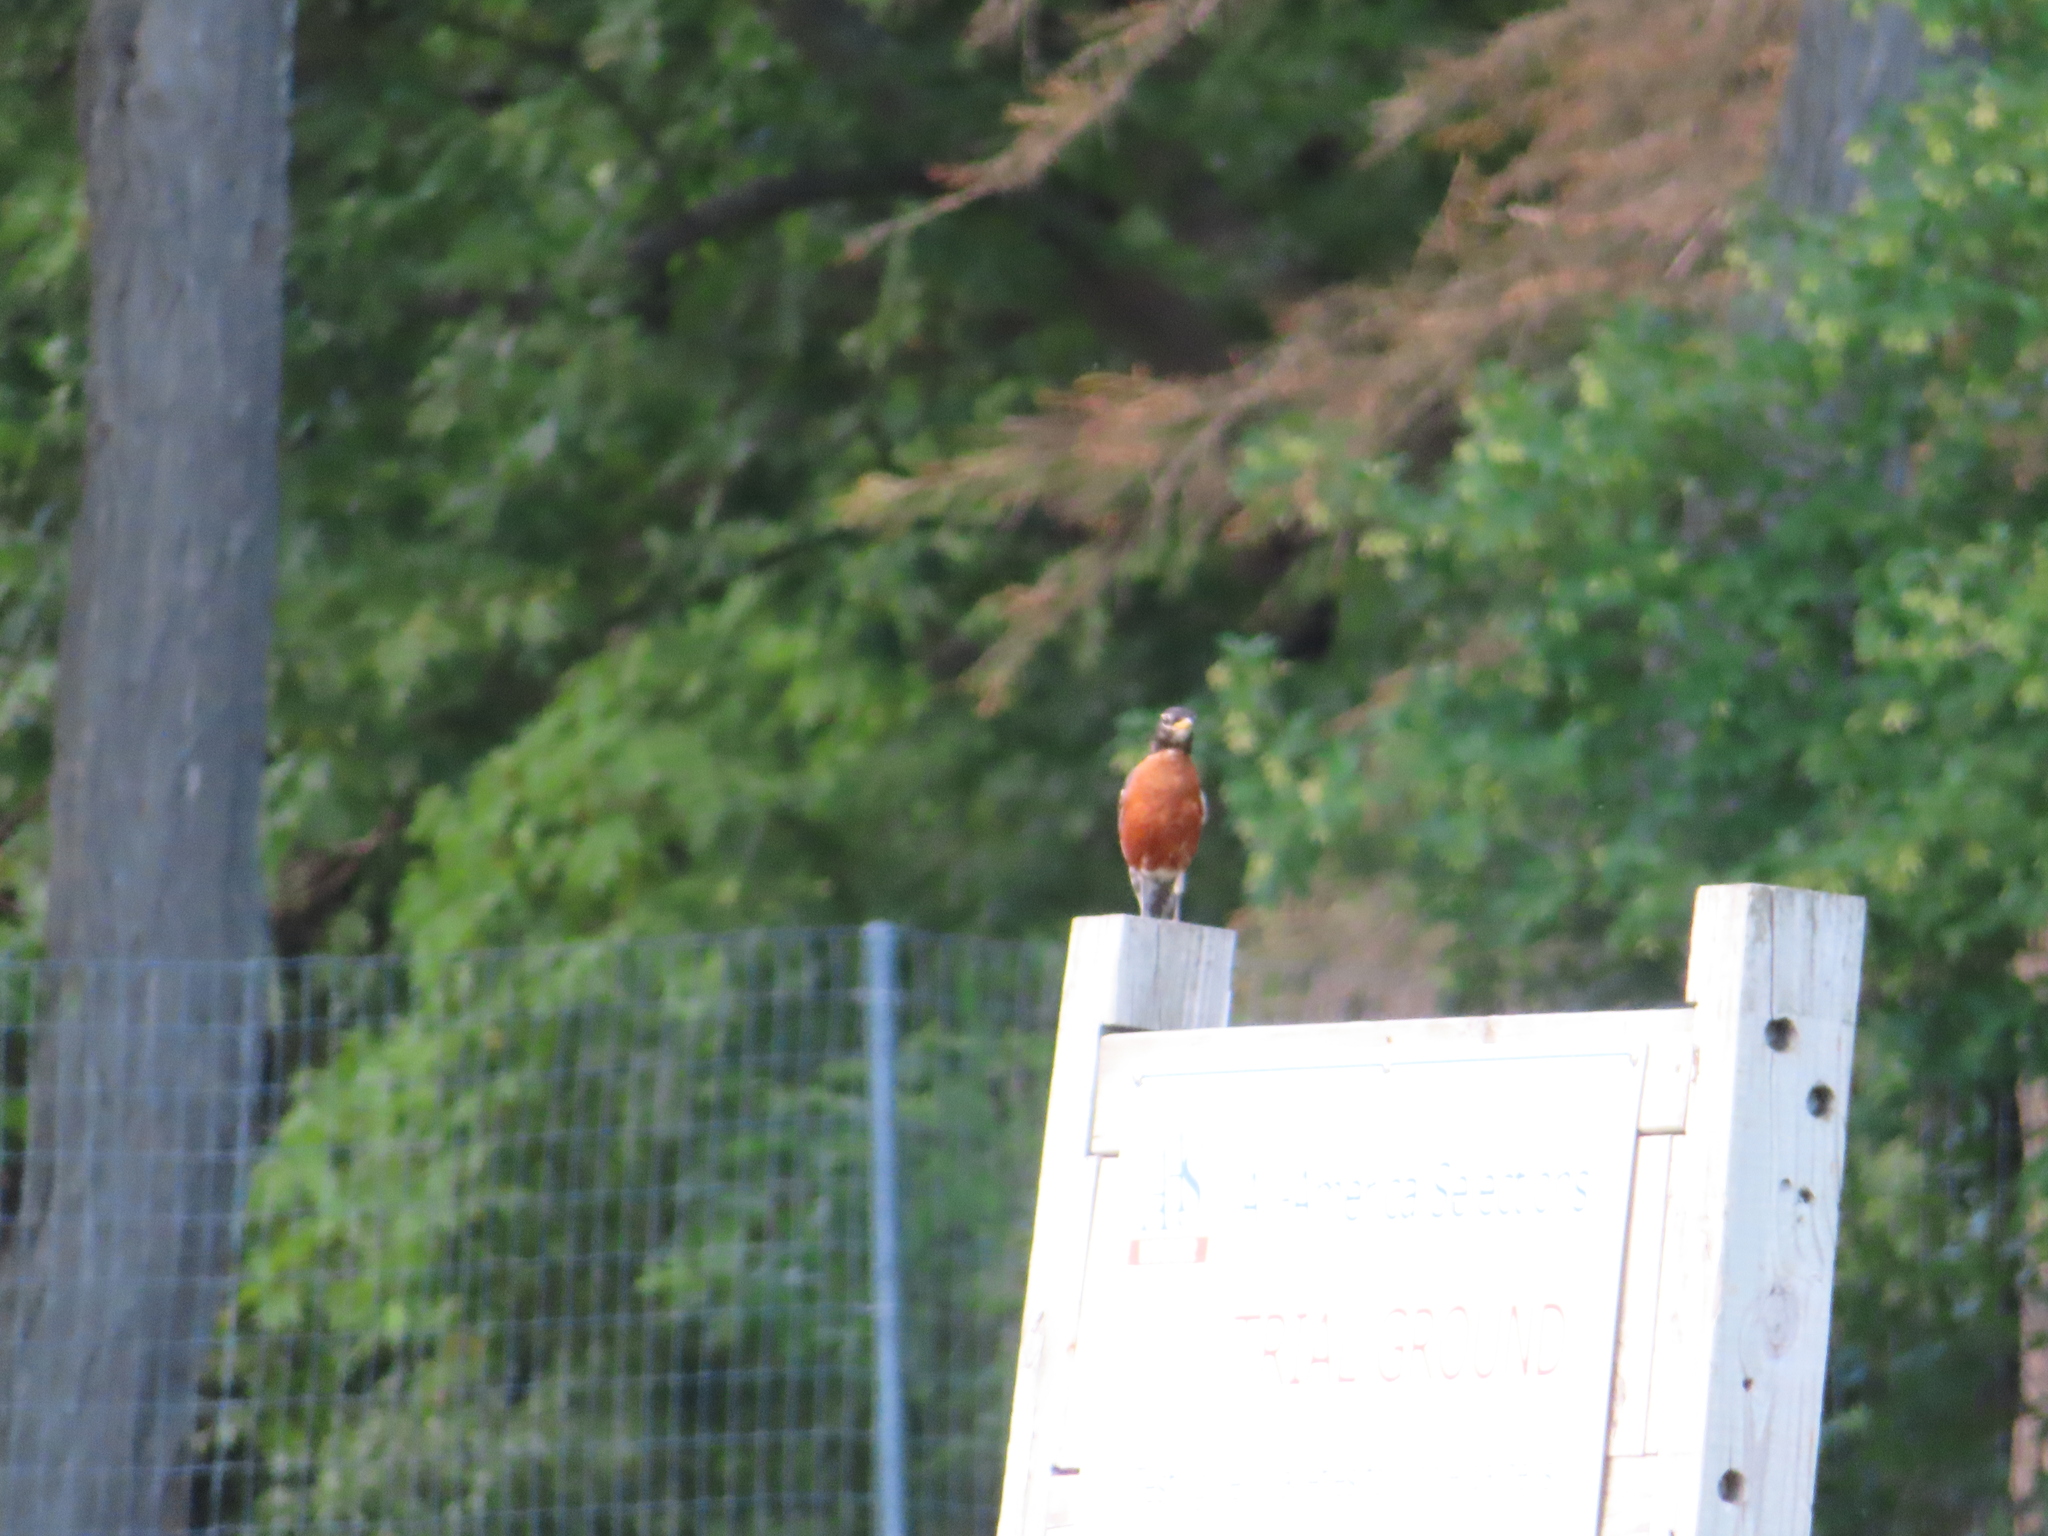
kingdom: Animalia
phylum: Chordata
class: Aves
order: Passeriformes
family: Turdidae
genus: Turdus
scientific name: Turdus migratorius
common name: American robin
